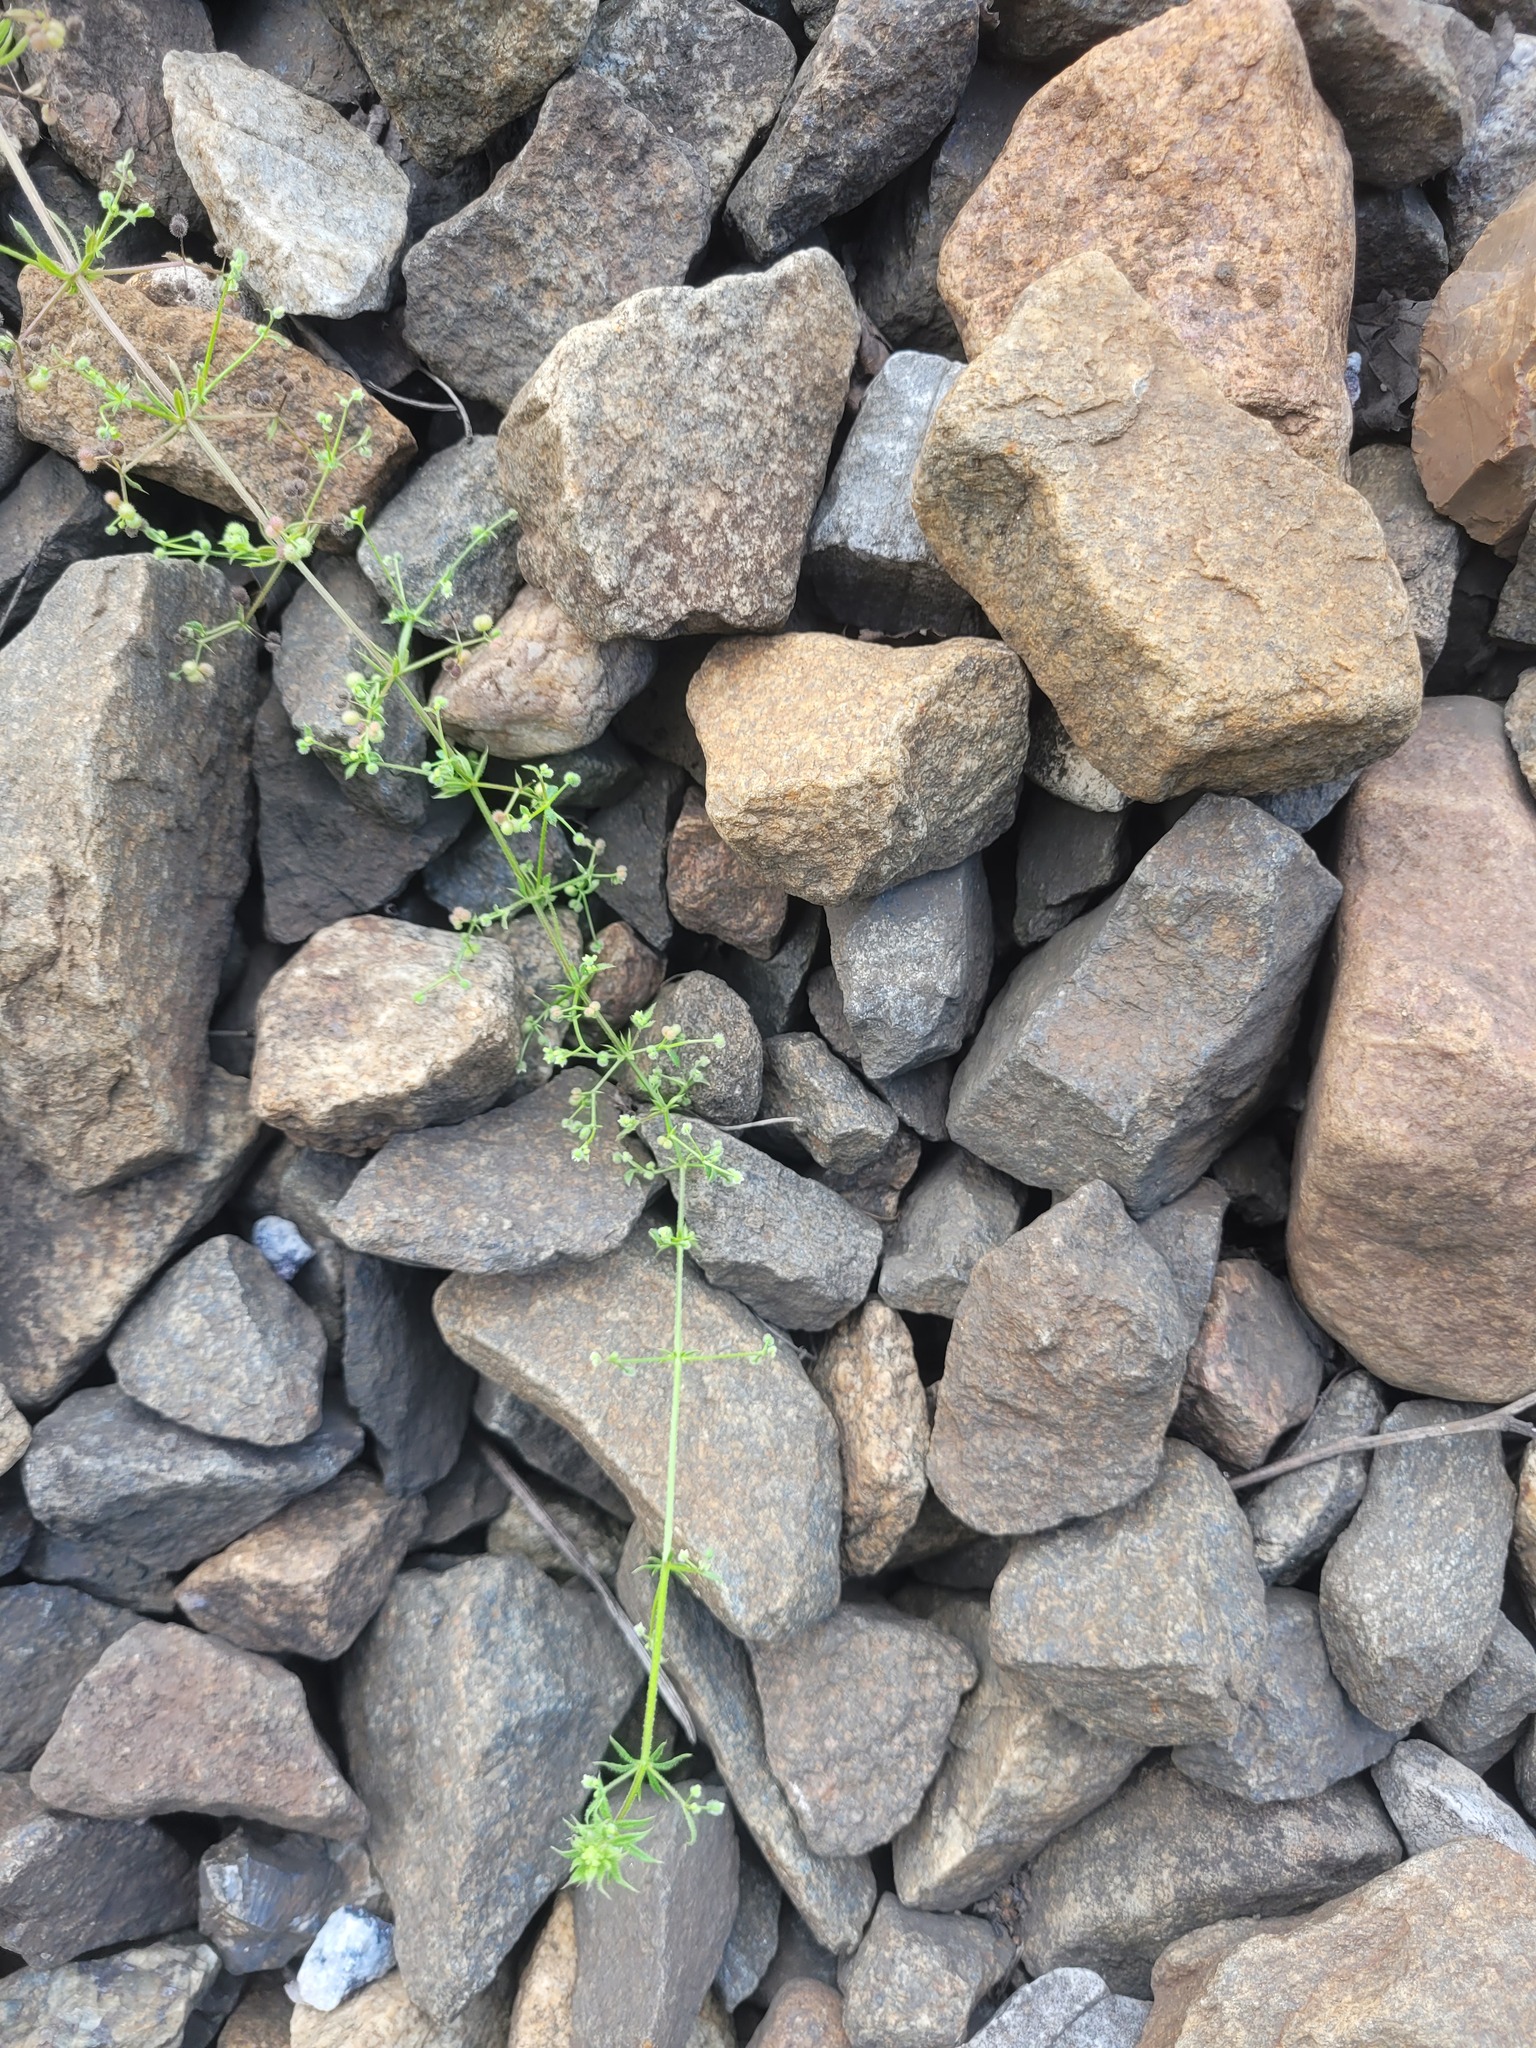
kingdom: Plantae
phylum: Tracheophyta
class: Magnoliopsida
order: Gentianales
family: Rubiaceae
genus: Galium
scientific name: Galium
